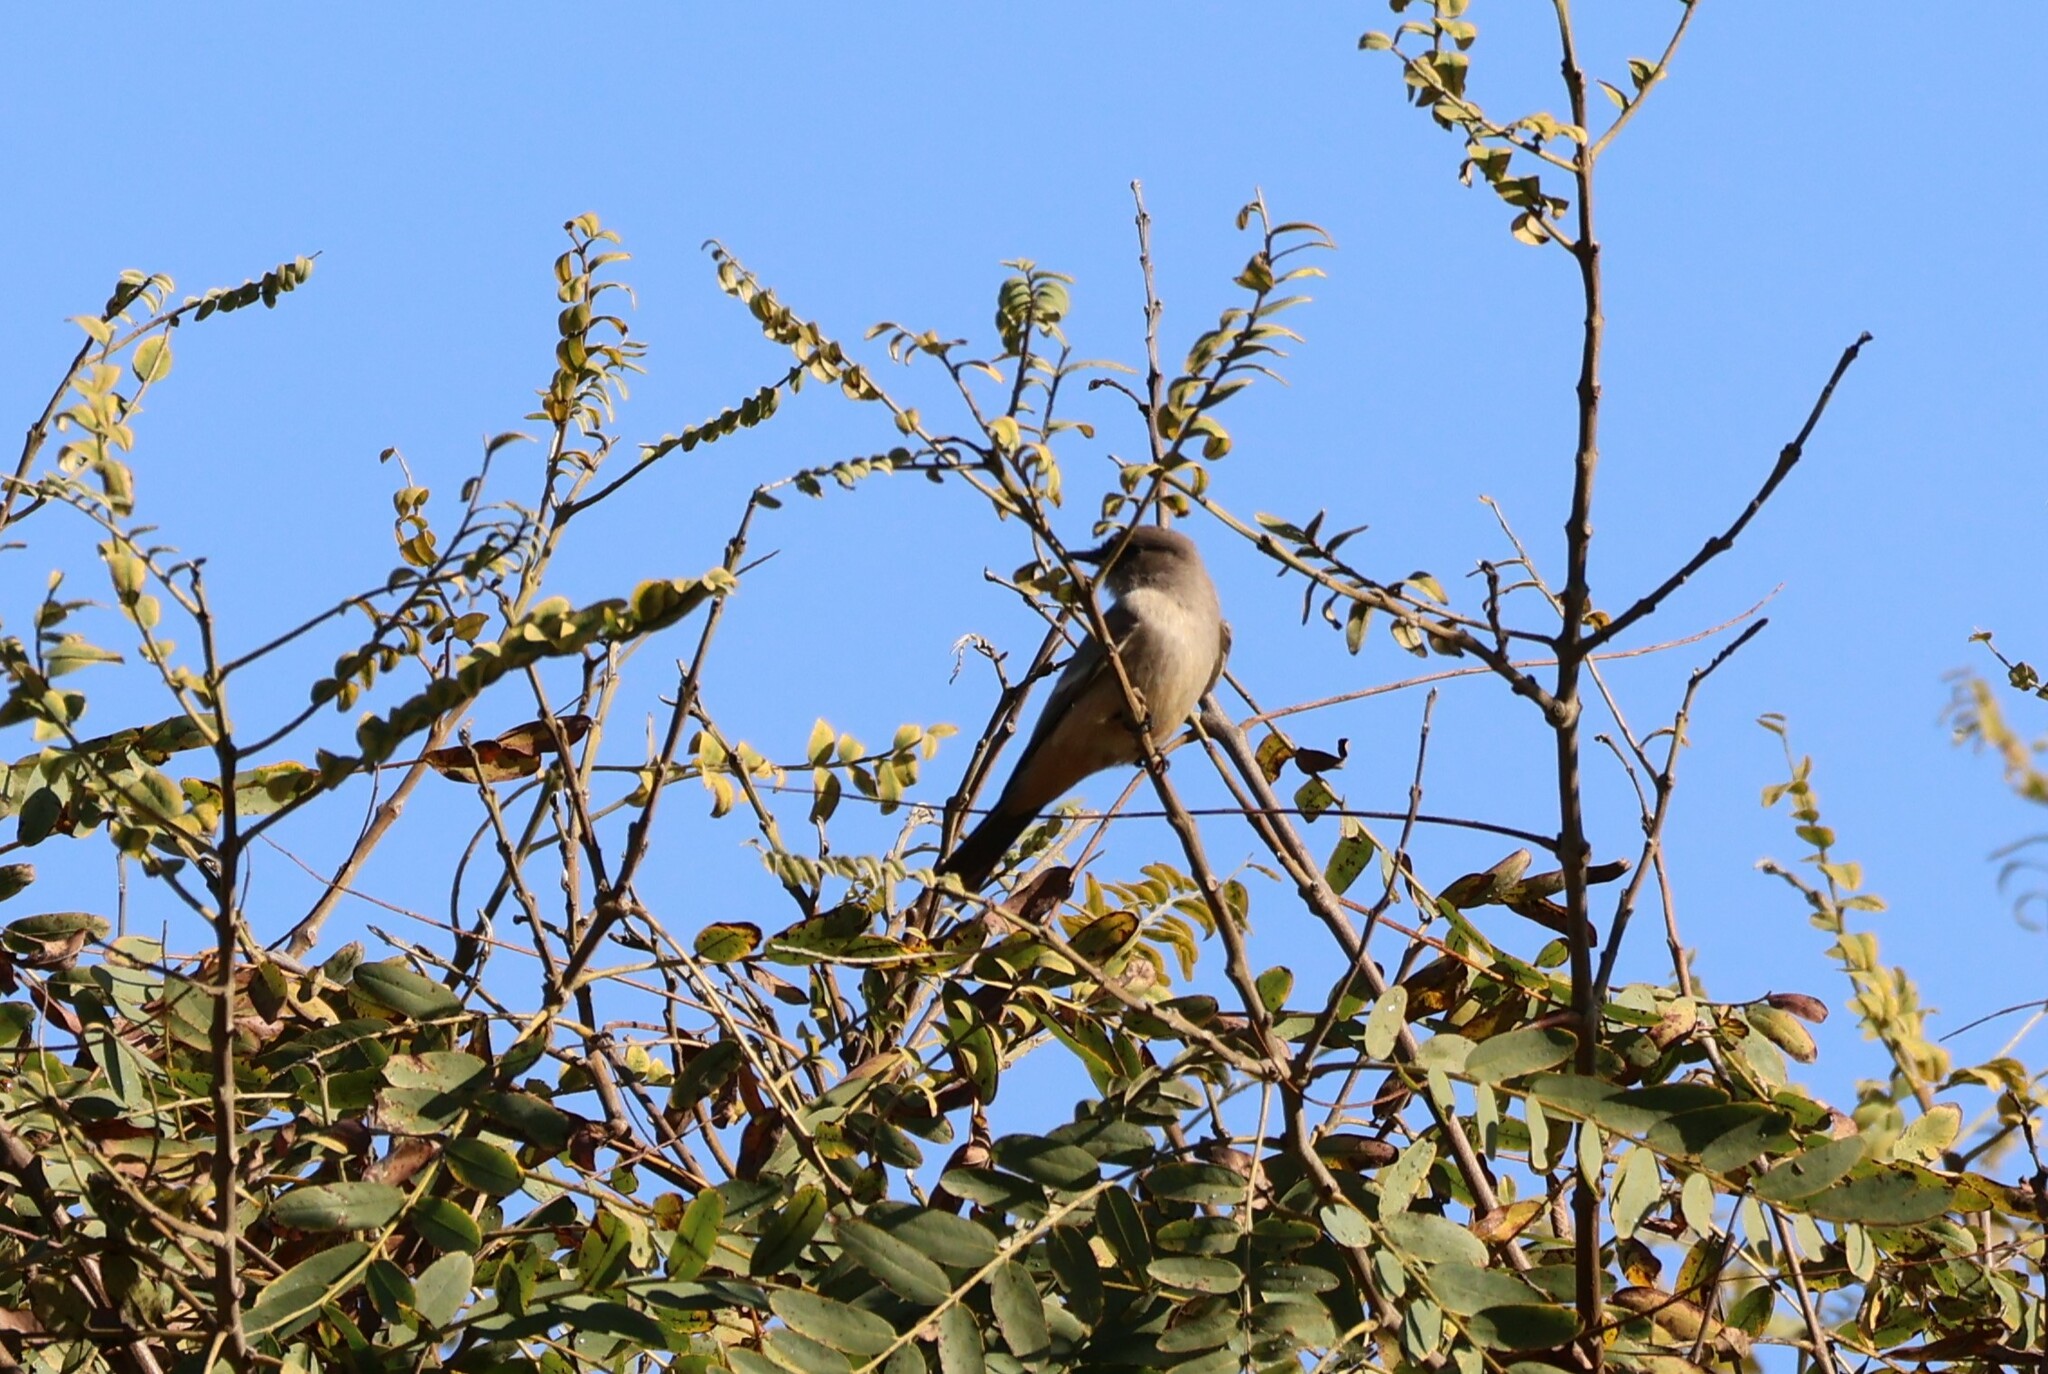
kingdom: Animalia
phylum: Chordata
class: Aves
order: Passeriformes
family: Tyrannidae
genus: Sayornis
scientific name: Sayornis saya
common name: Say's phoebe
